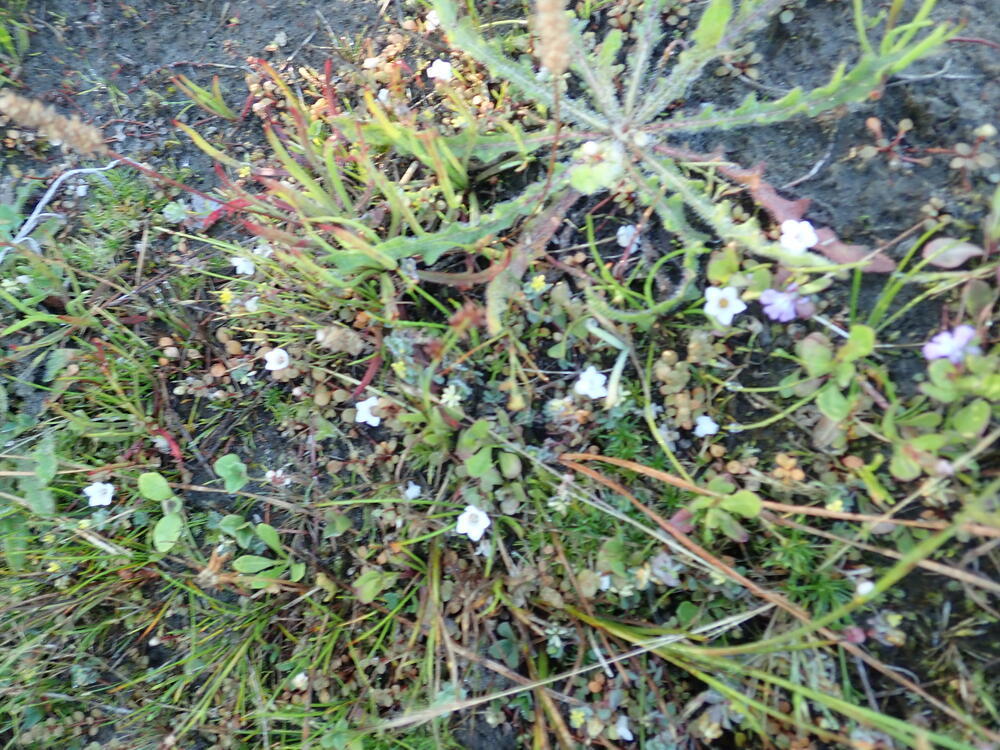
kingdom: Plantae
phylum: Tracheophyta
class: Magnoliopsida
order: Ericales
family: Primulaceae
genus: Samolus
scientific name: Samolus repens
